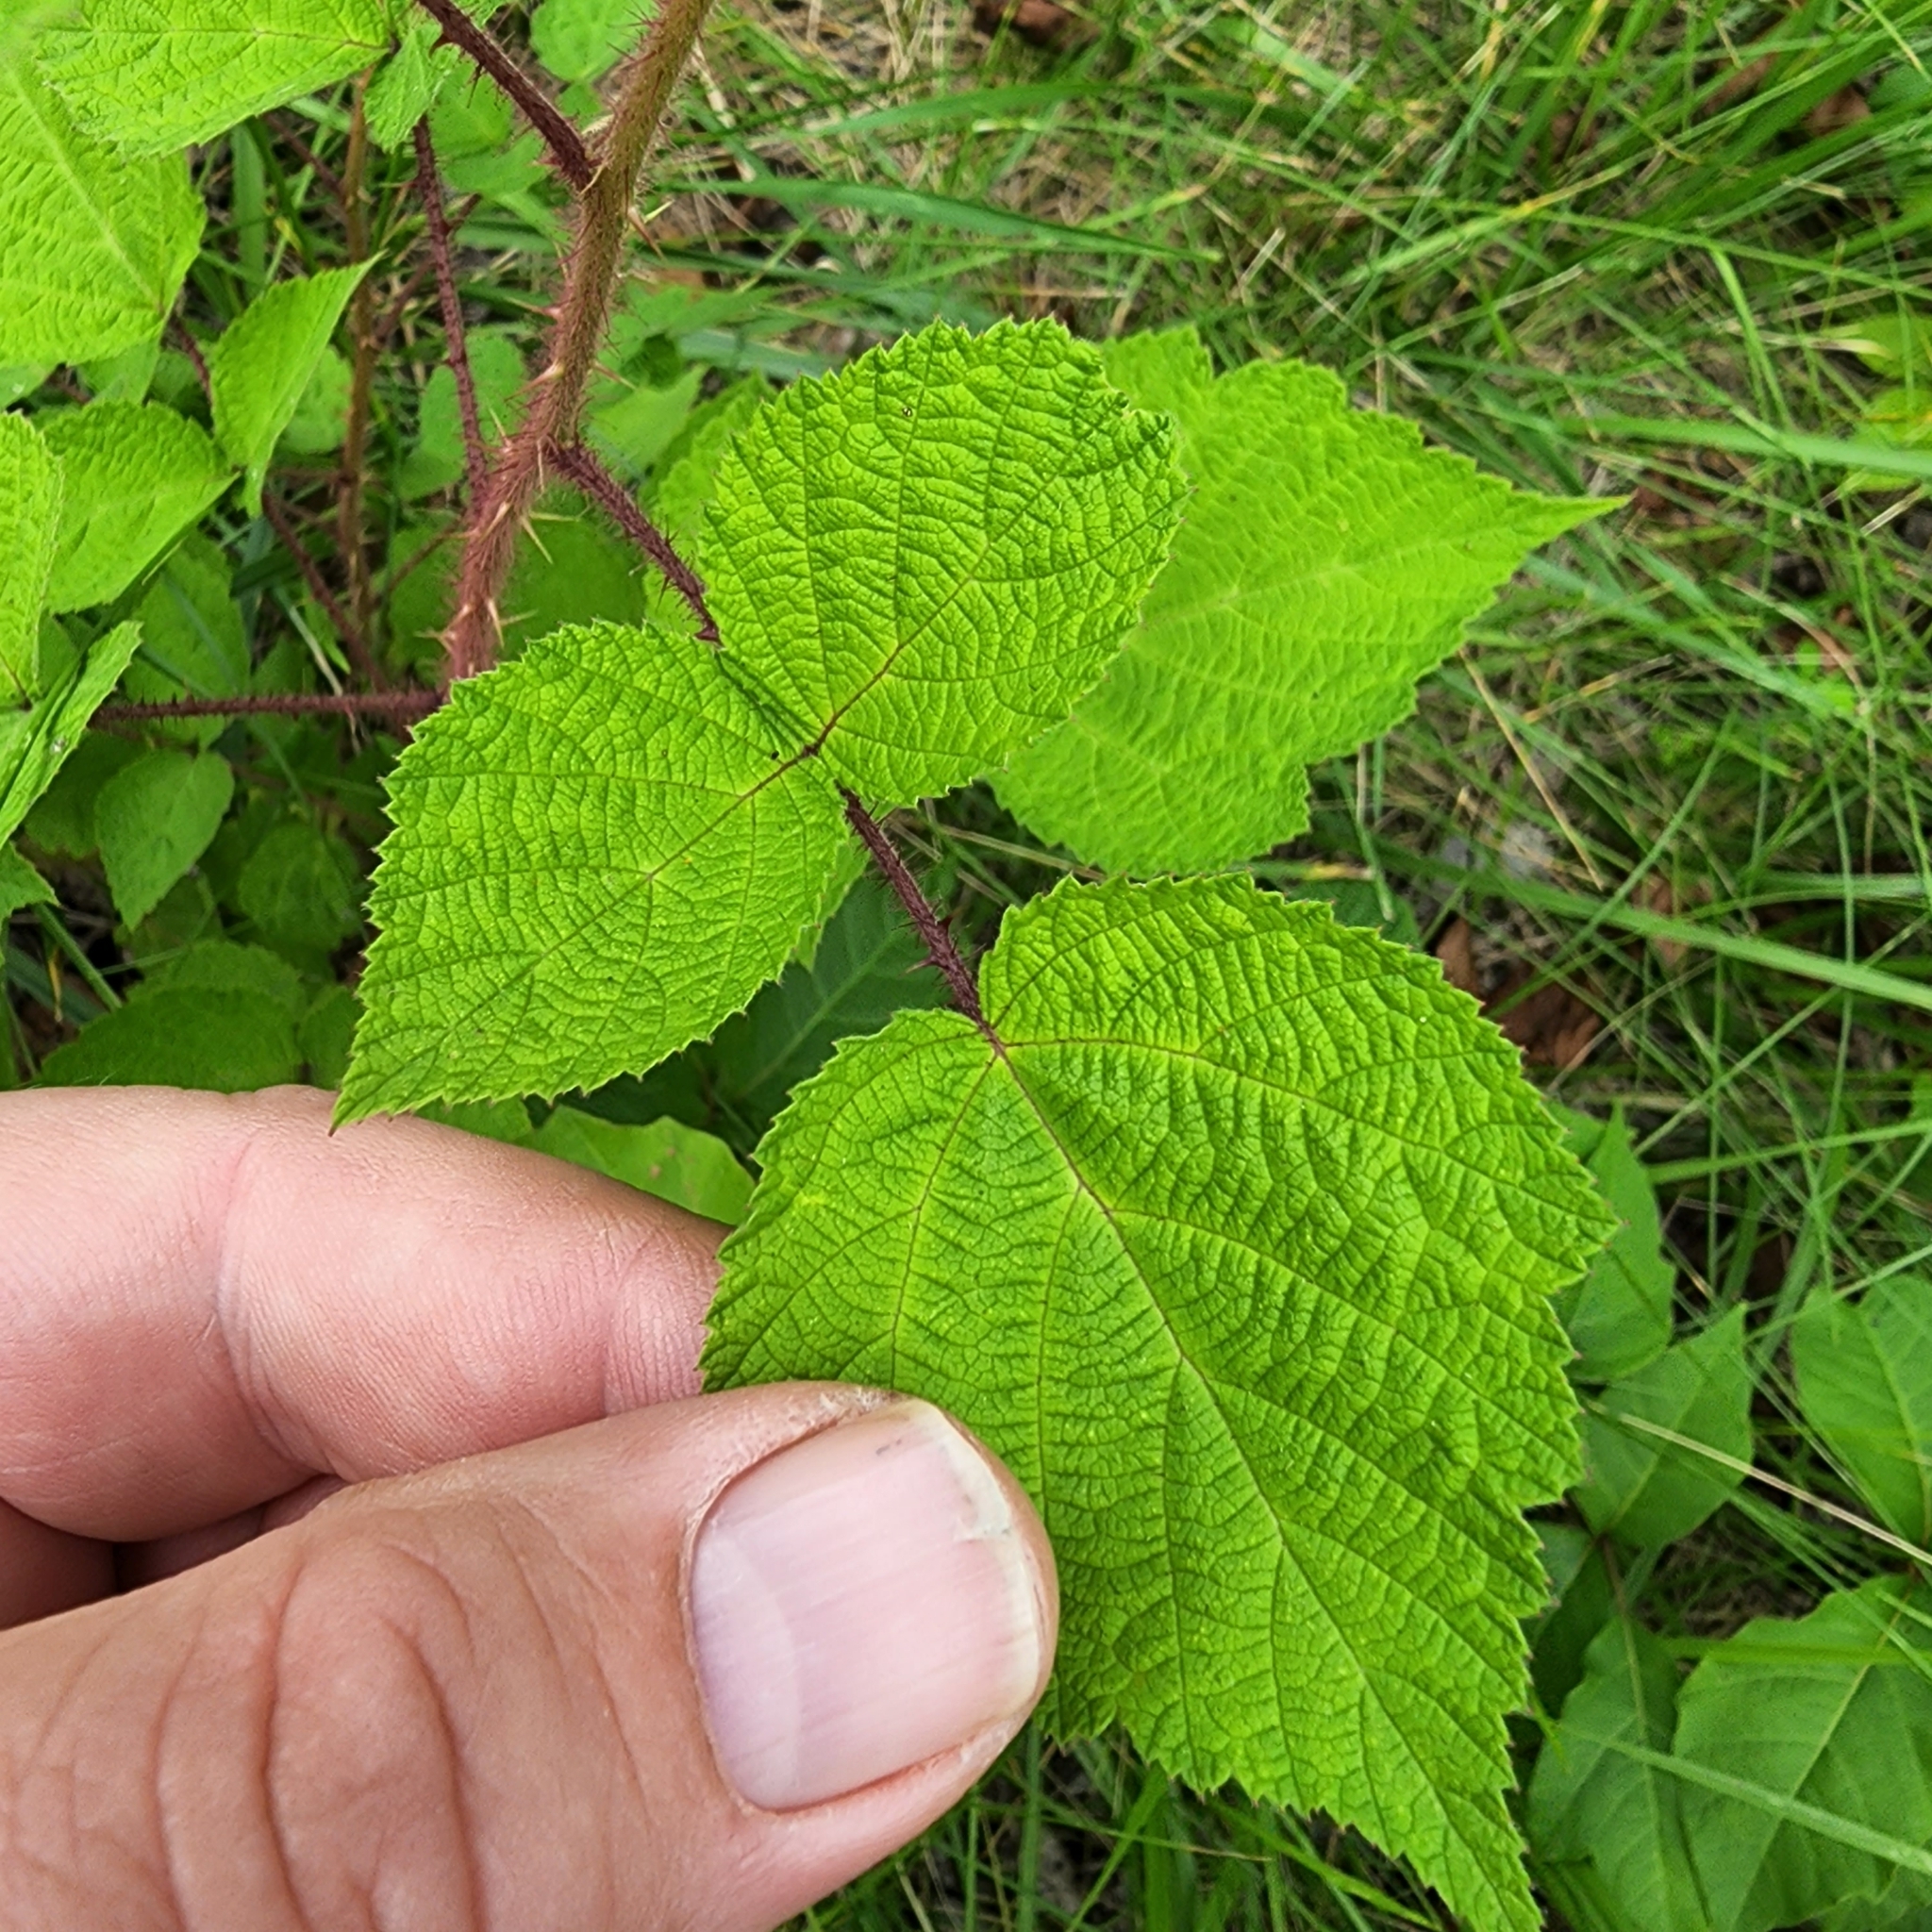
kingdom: Plantae
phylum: Tracheophyta
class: Magnoliopsida
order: Rosales
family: Rosaceae
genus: Rubus
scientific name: Rubus phoenicolasius
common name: Japanese wineberry
